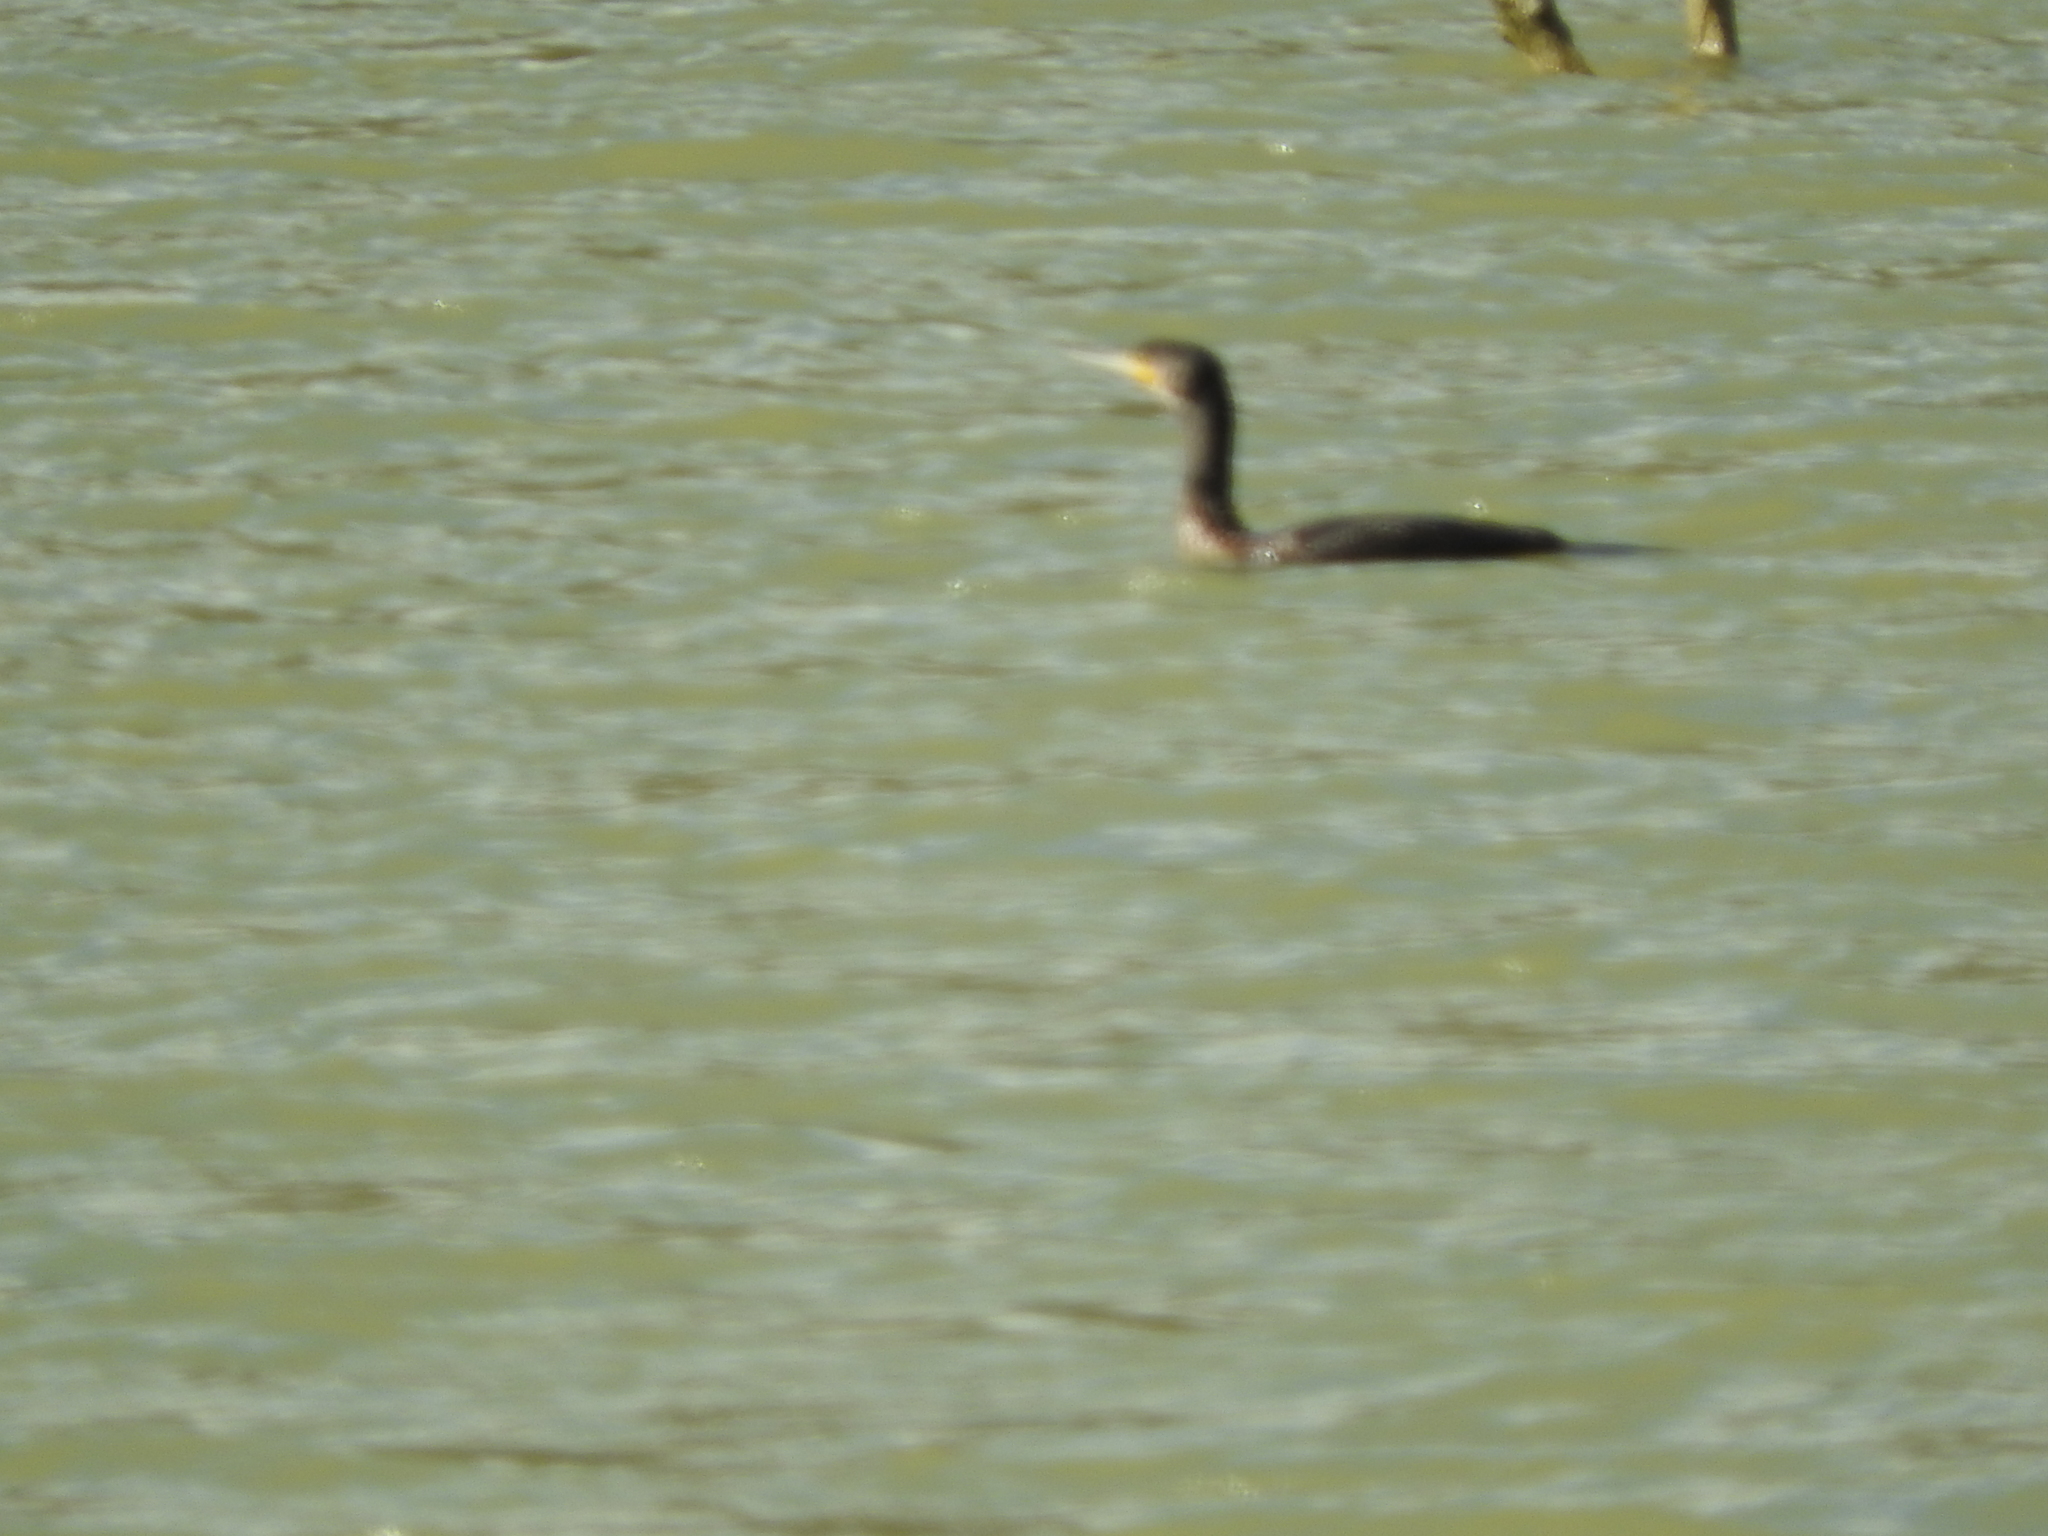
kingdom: Animalia
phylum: Chordata
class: Aves
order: Suliformes
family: Phalacrocoracidae
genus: Phalacrocorax
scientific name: Phalacrocorax carbo
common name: Great cormorant
